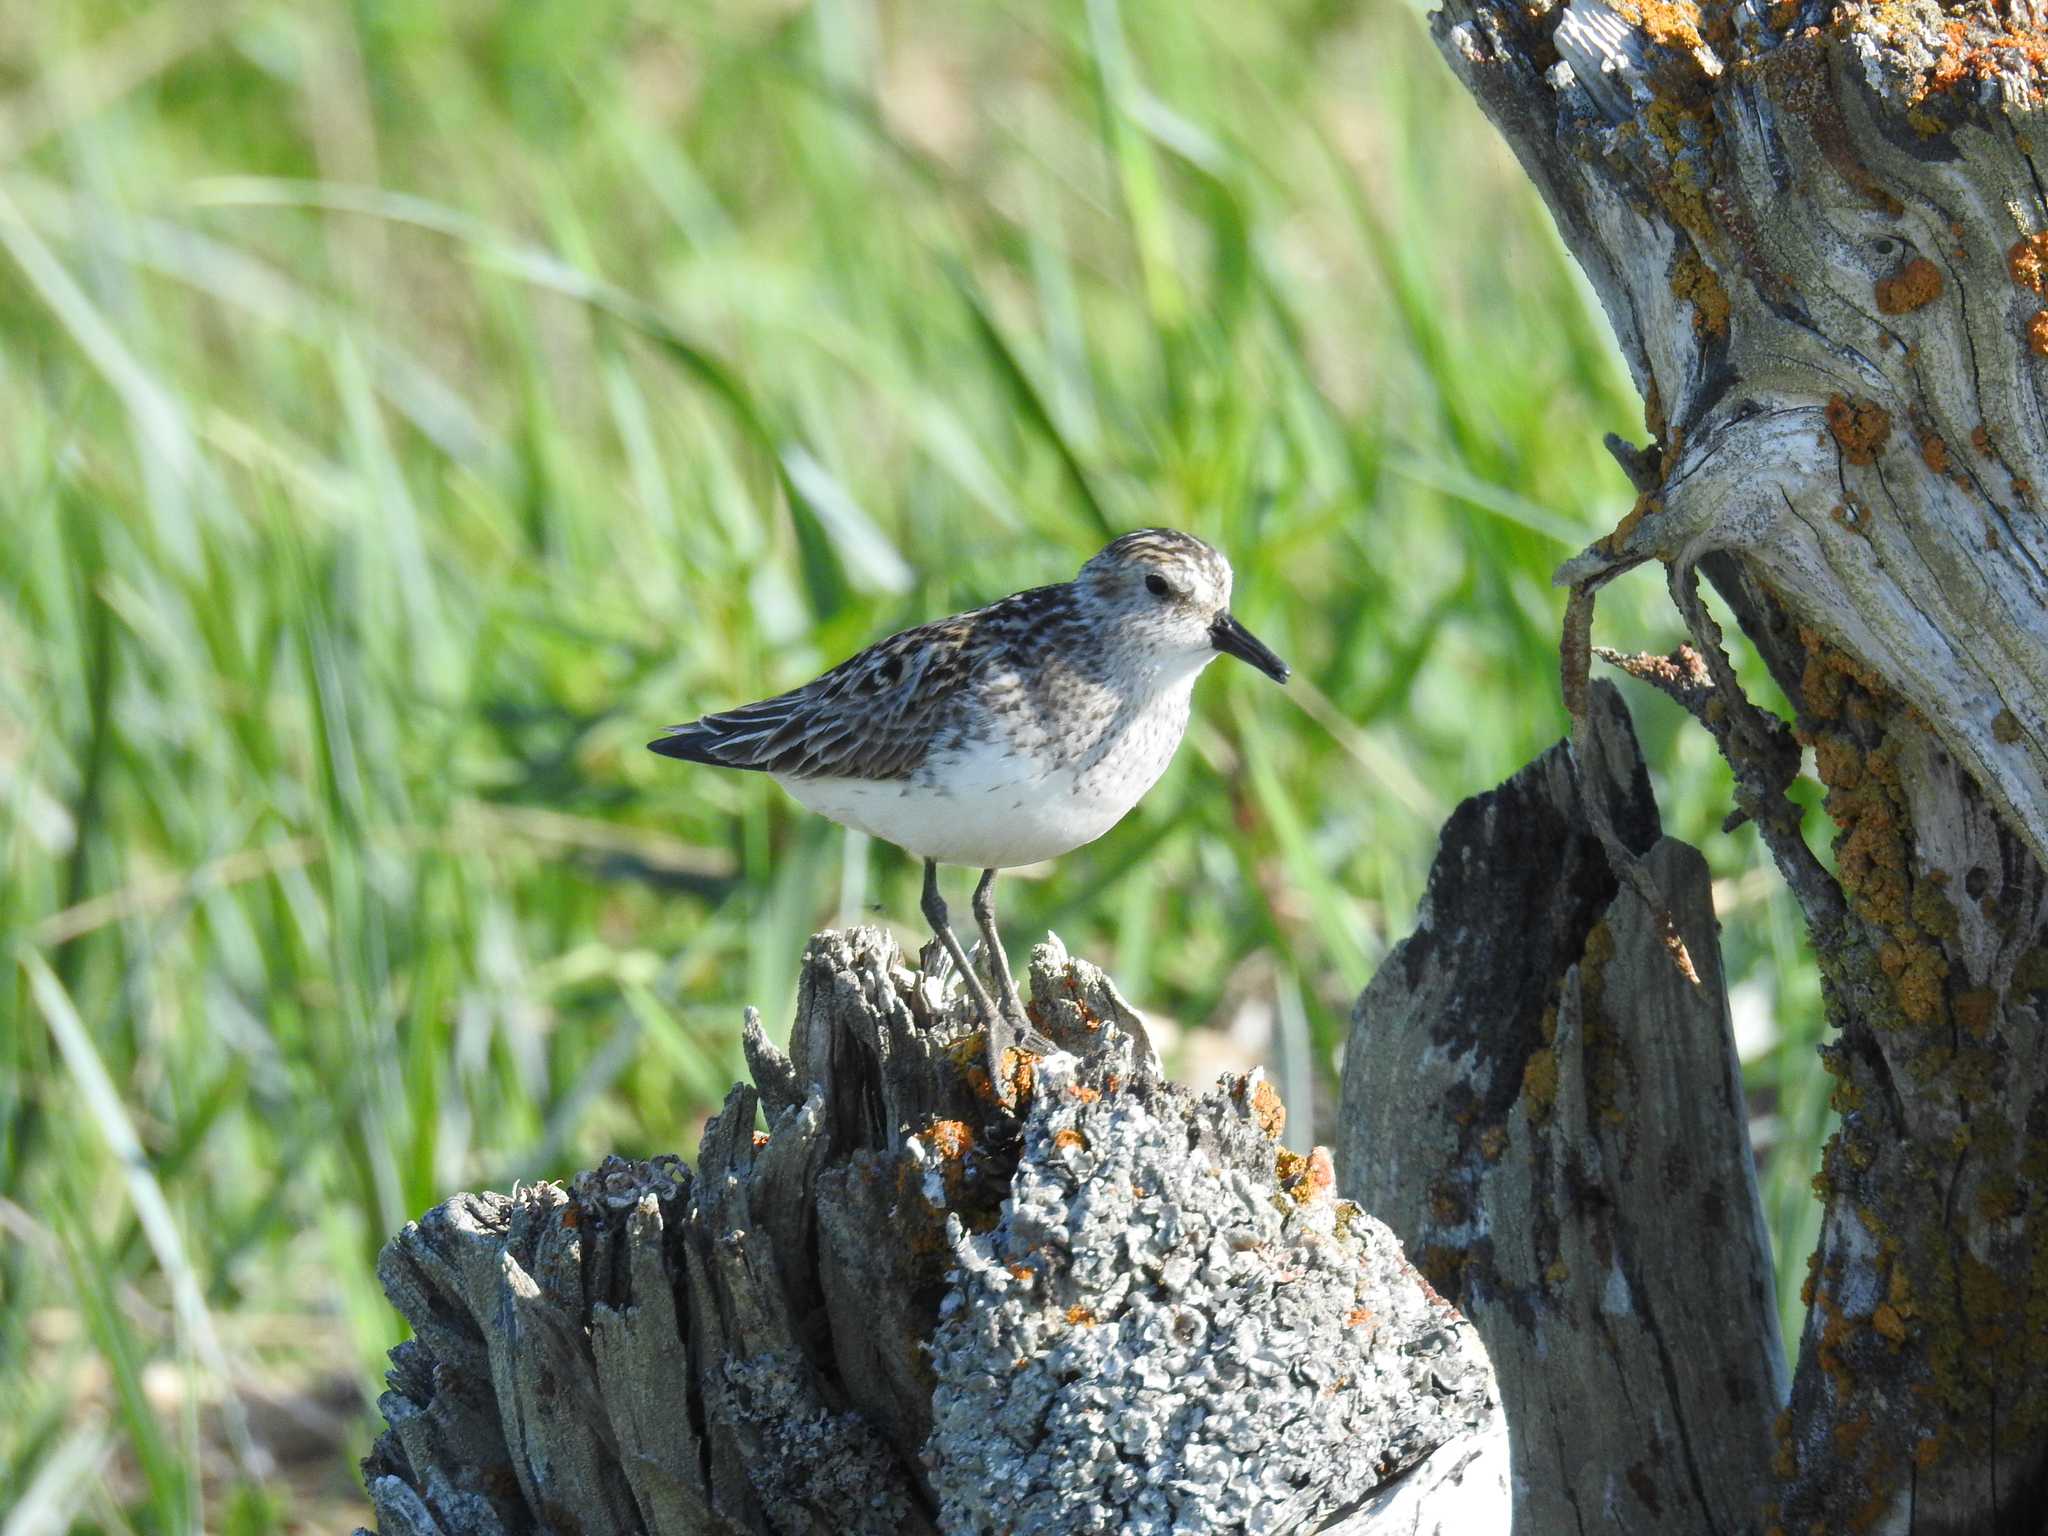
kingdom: Animalia
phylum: Chordata
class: Aves
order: Charadriiformes
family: Scolopacidae
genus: Calidris
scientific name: Calidris pusilla
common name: Semipalmated sandpiper
